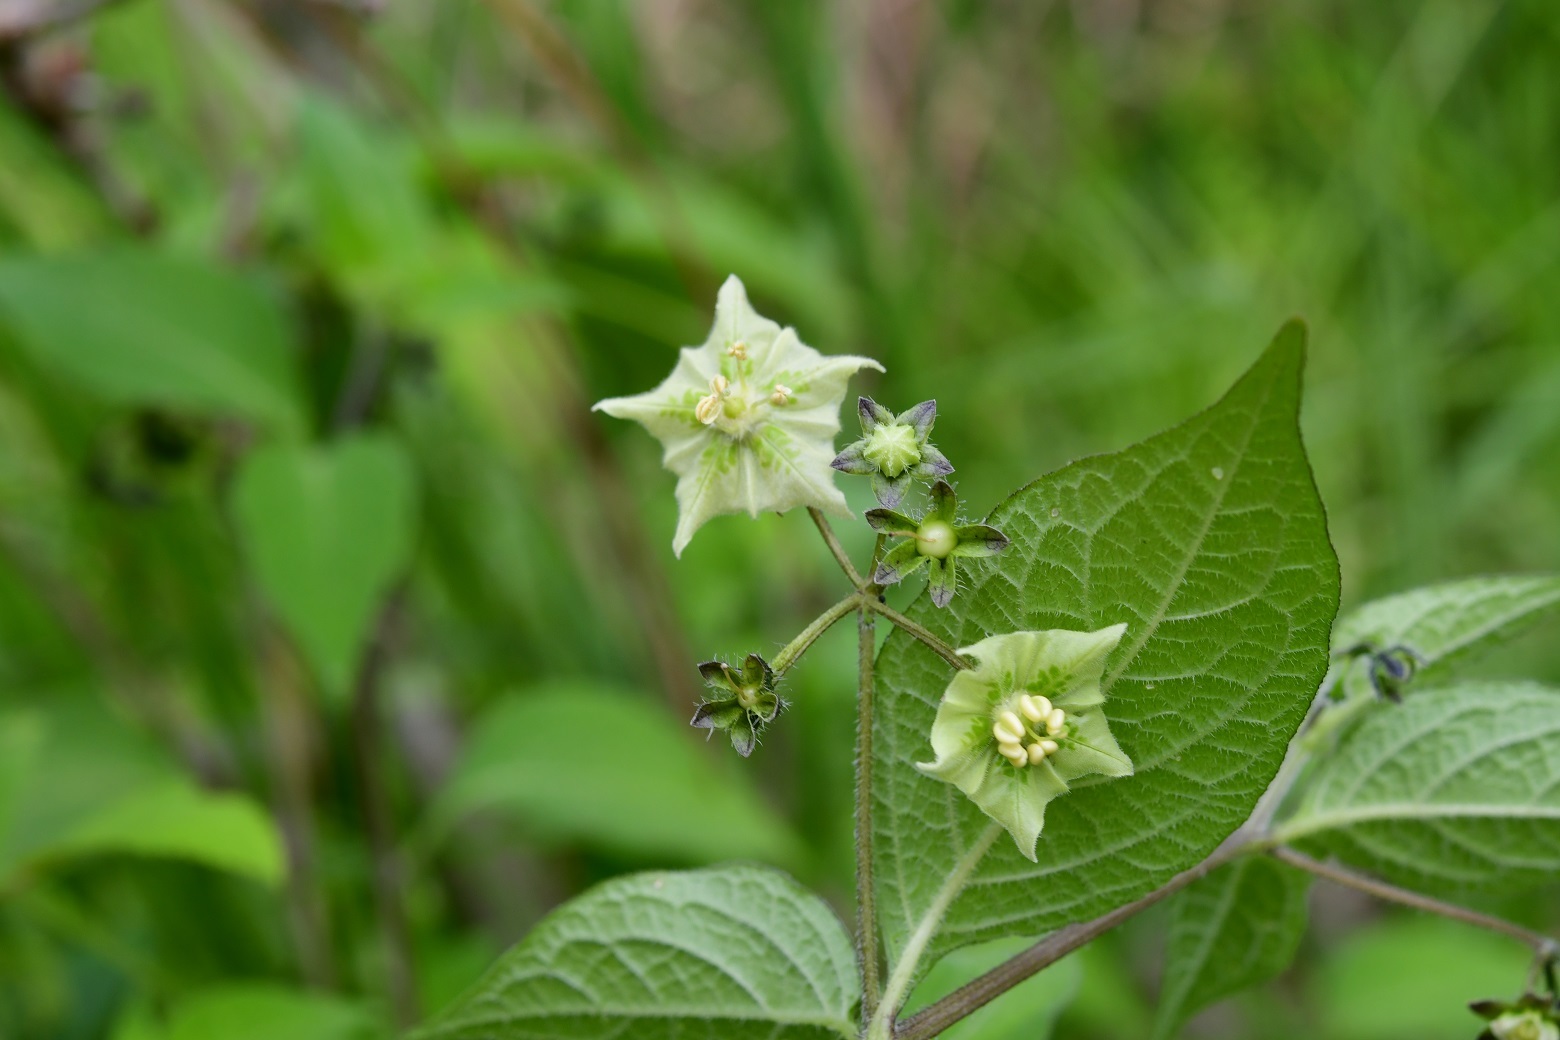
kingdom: Plantae
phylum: Tracheophyta
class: Magnoliopsida
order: Solanales
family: Solanaceae
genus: Jaltomata
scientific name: Jaltomata procumbens
